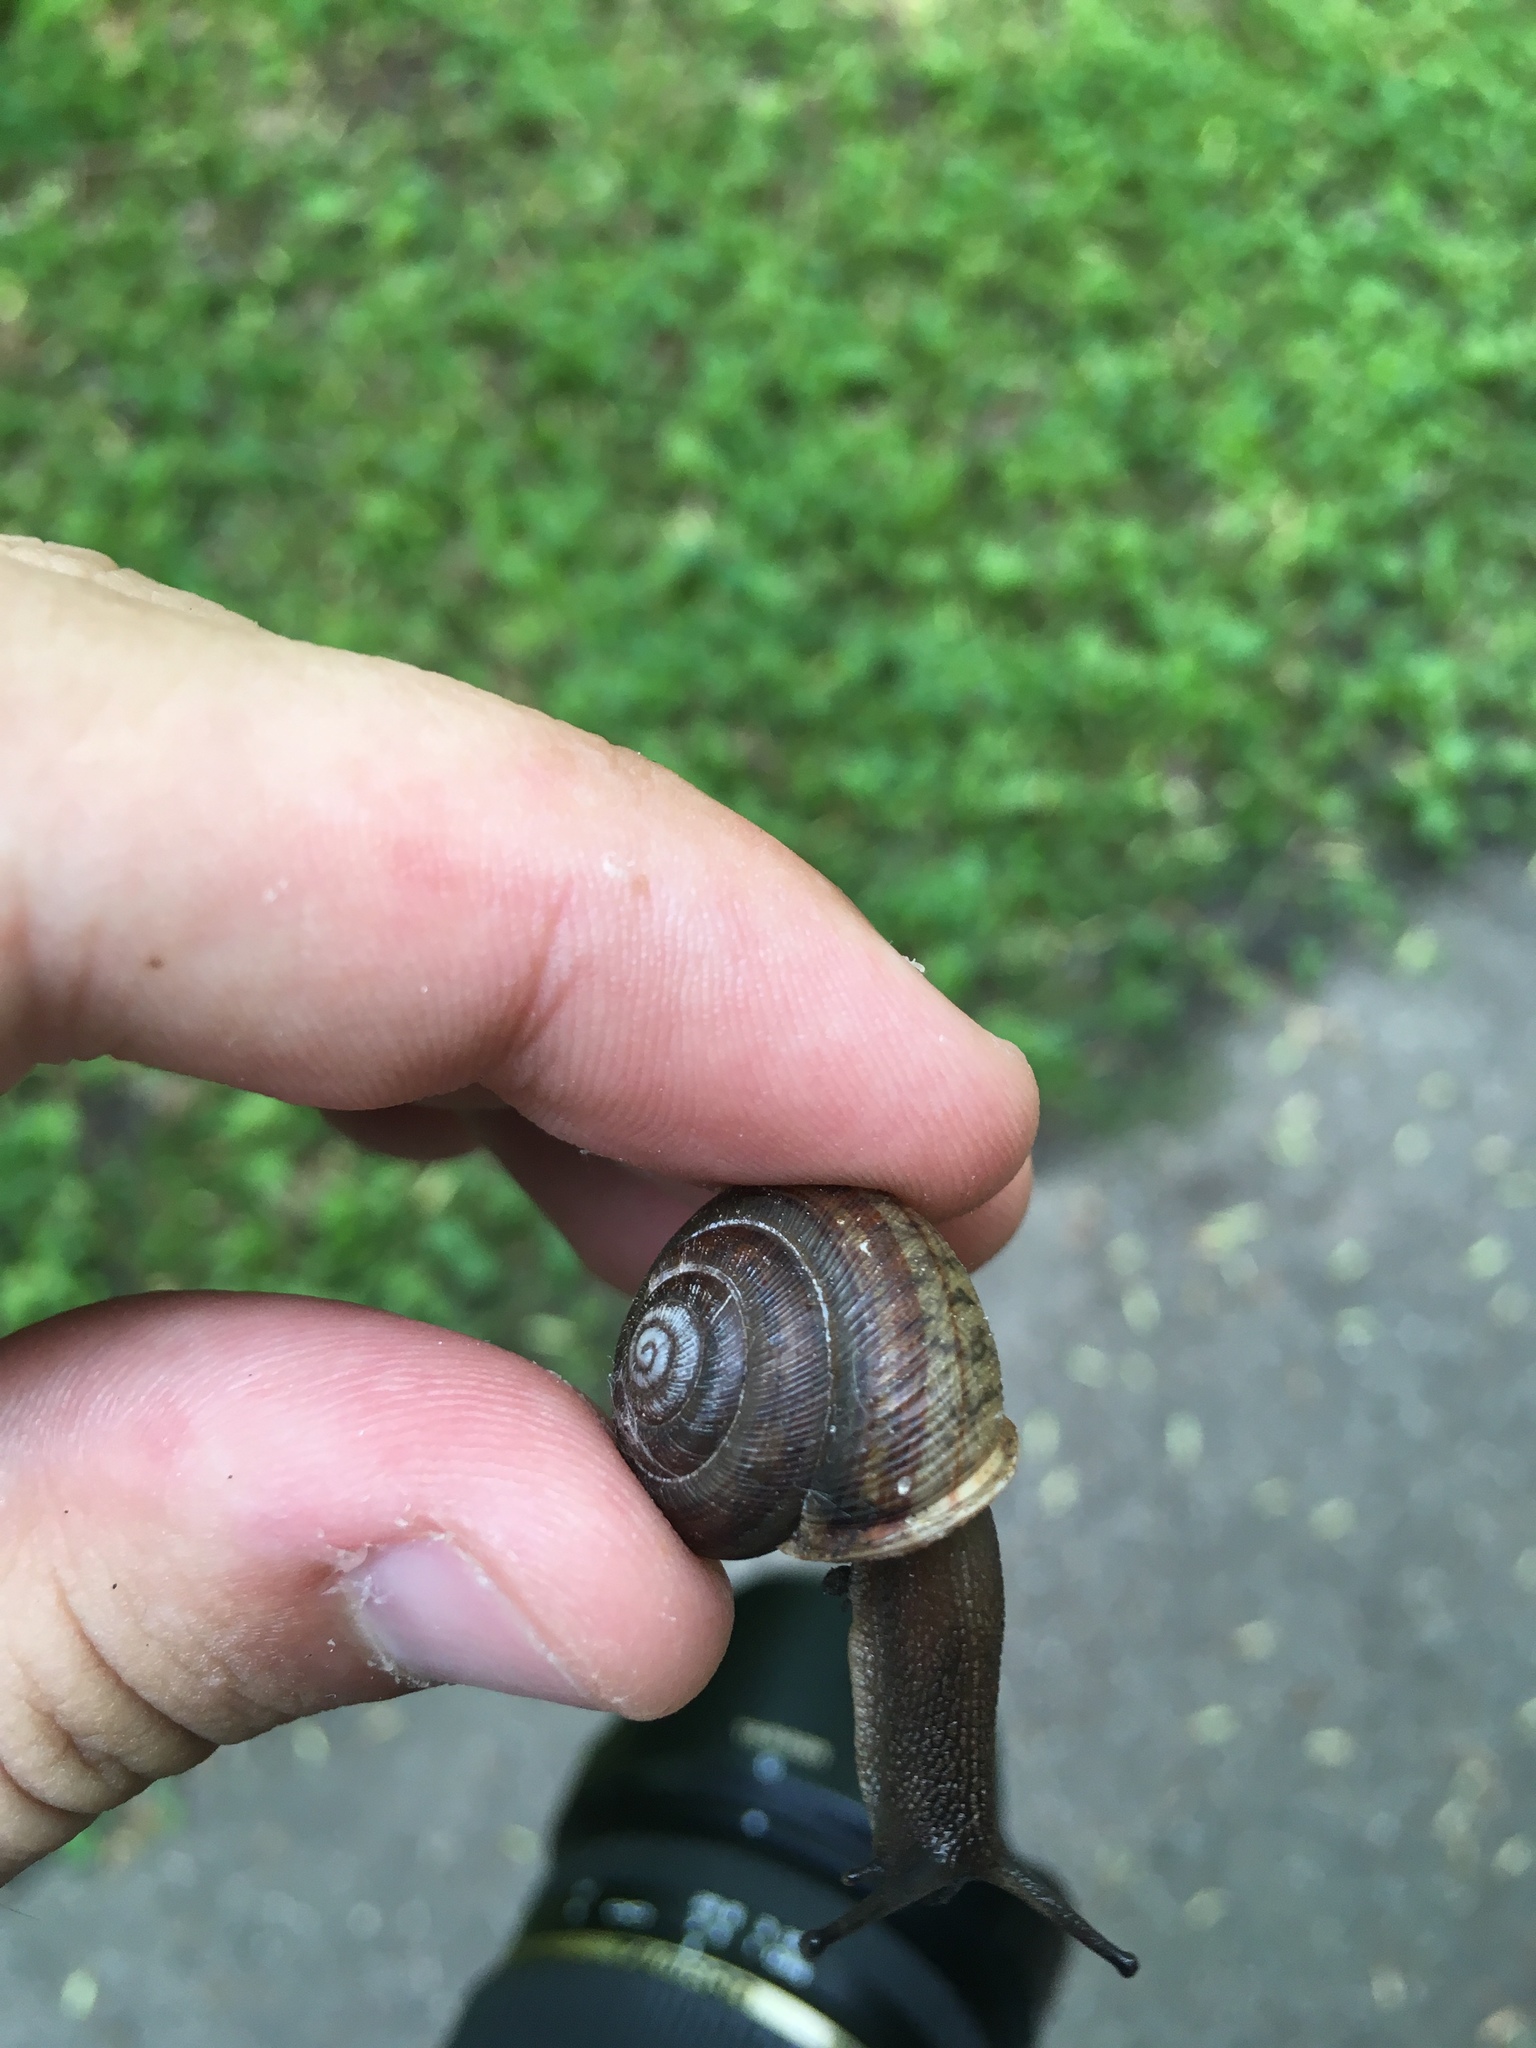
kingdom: Animalia
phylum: Mollusca
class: Gastropoda
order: Stylommatophora
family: Polygyridae
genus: Webbhelix
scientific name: Webbhelix multilineata
